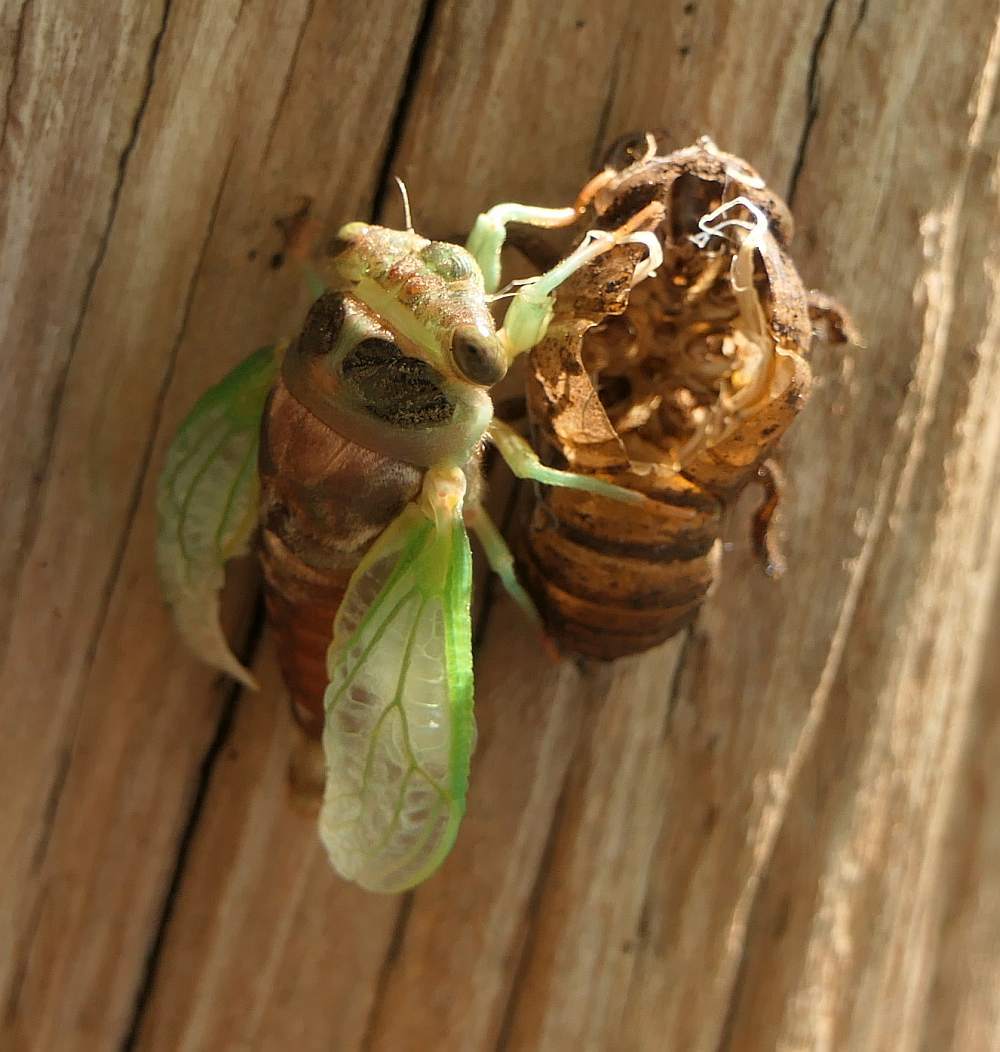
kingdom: Animalia
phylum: Arthropoda
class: Insecta
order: Hemiptera
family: Cicadidae
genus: Neotibicen
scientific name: Neotibicen canicularis
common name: God-day cicada
